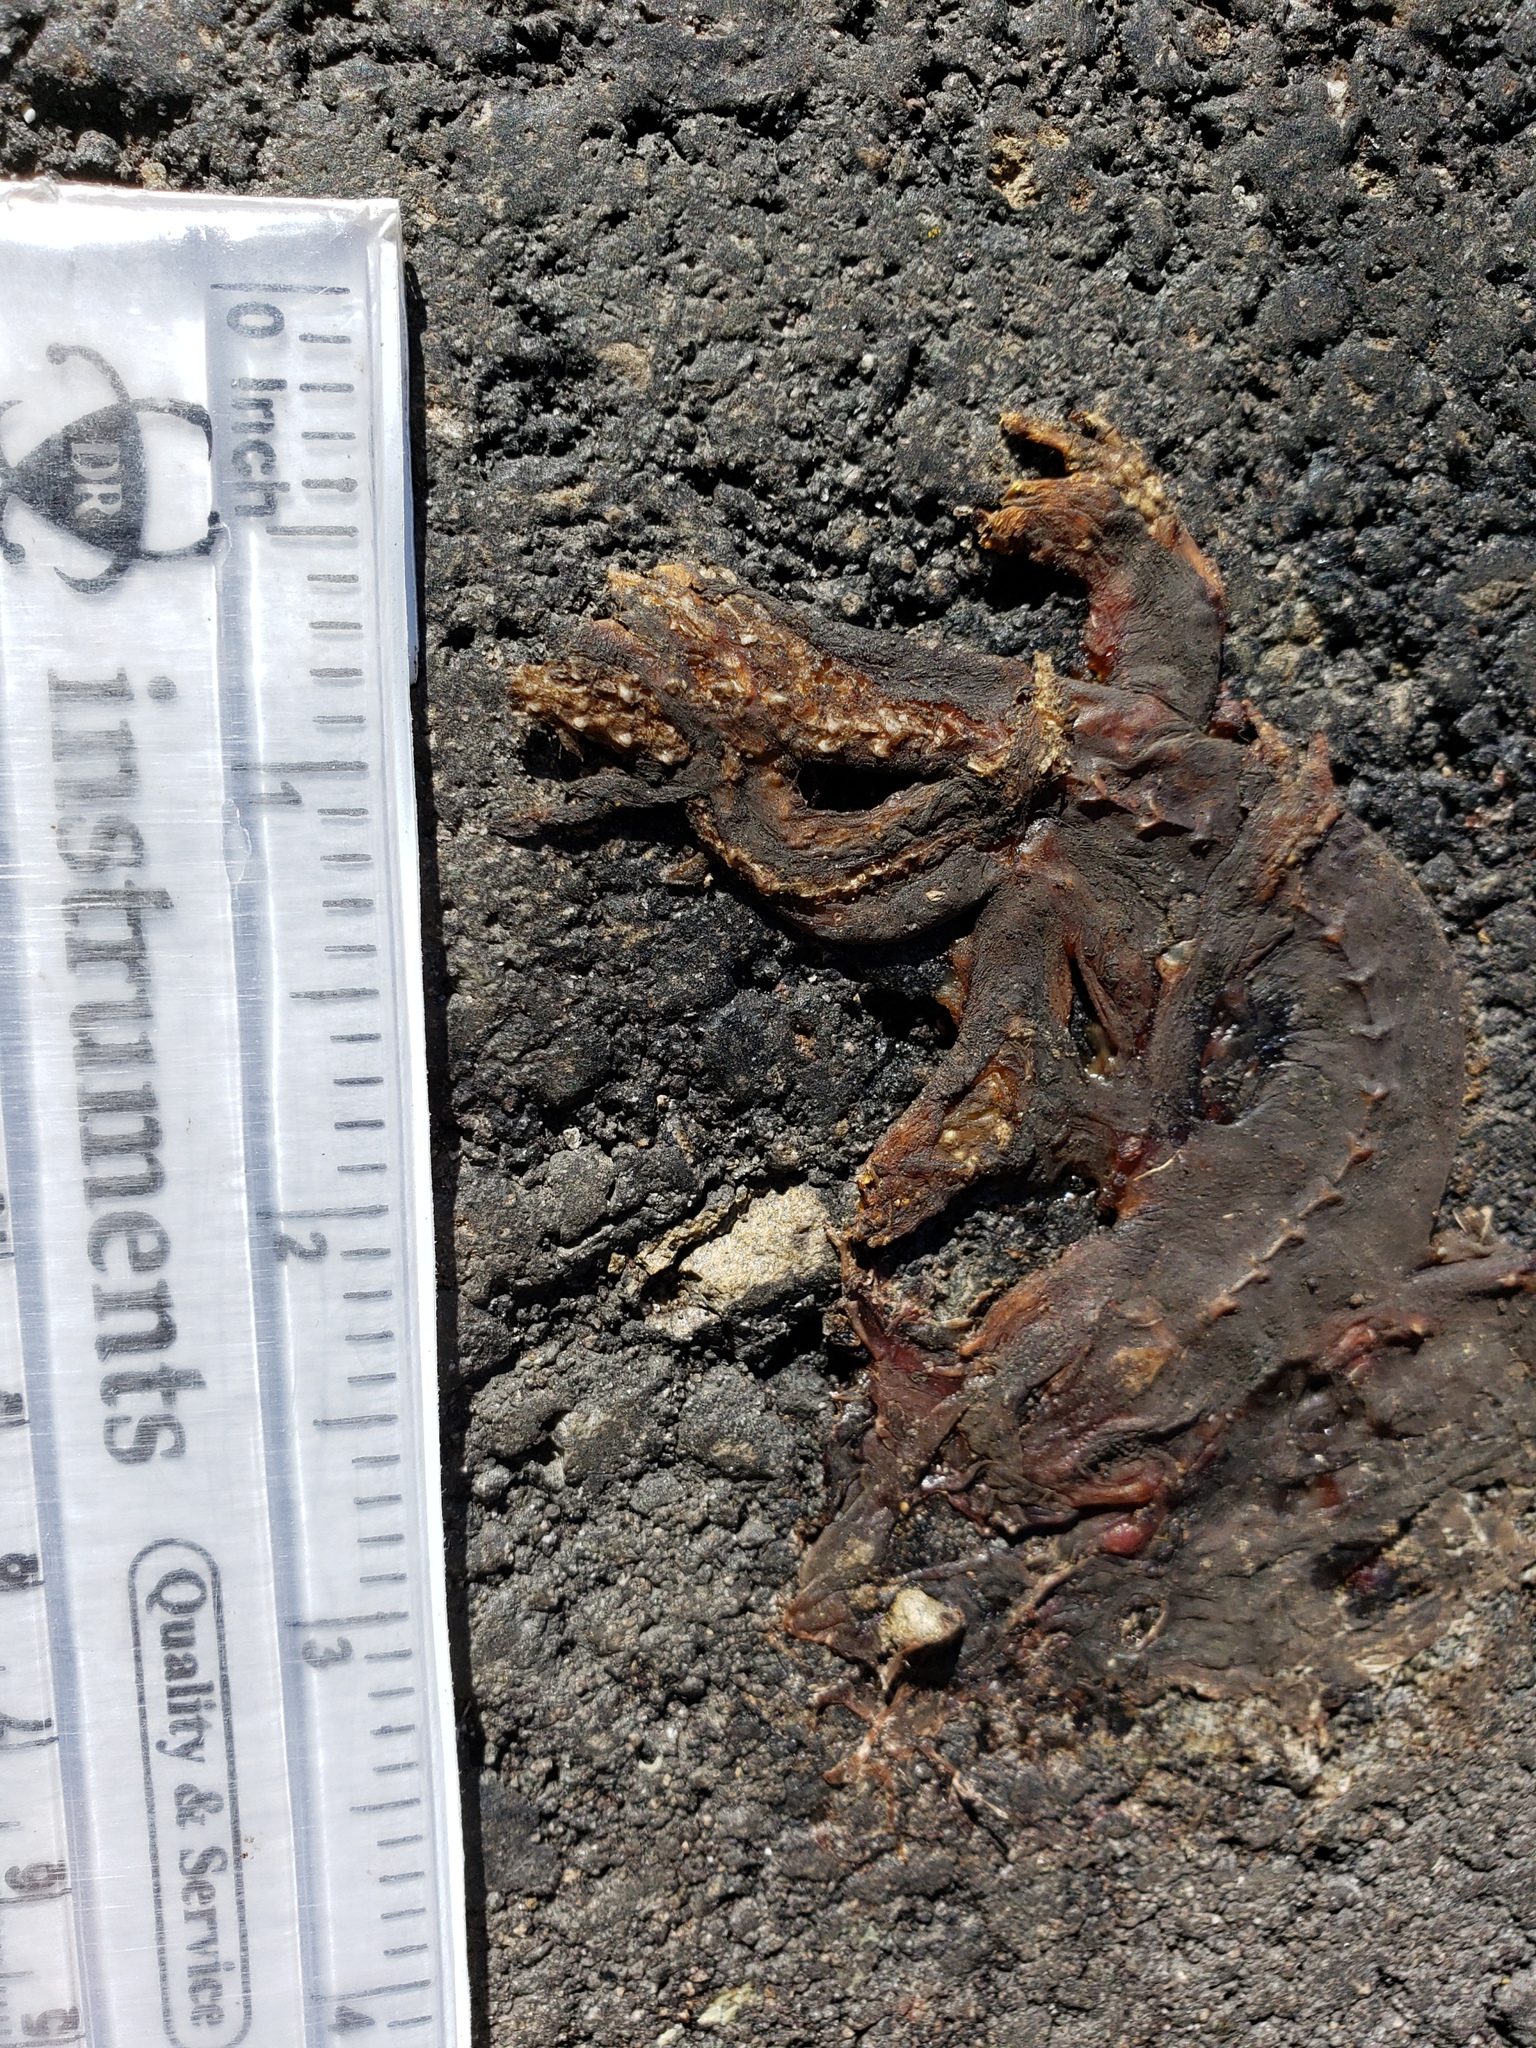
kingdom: Animalia
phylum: Chordata
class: Amphibia
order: Caudata
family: Salamandridae
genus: Taricha
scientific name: Taricha
